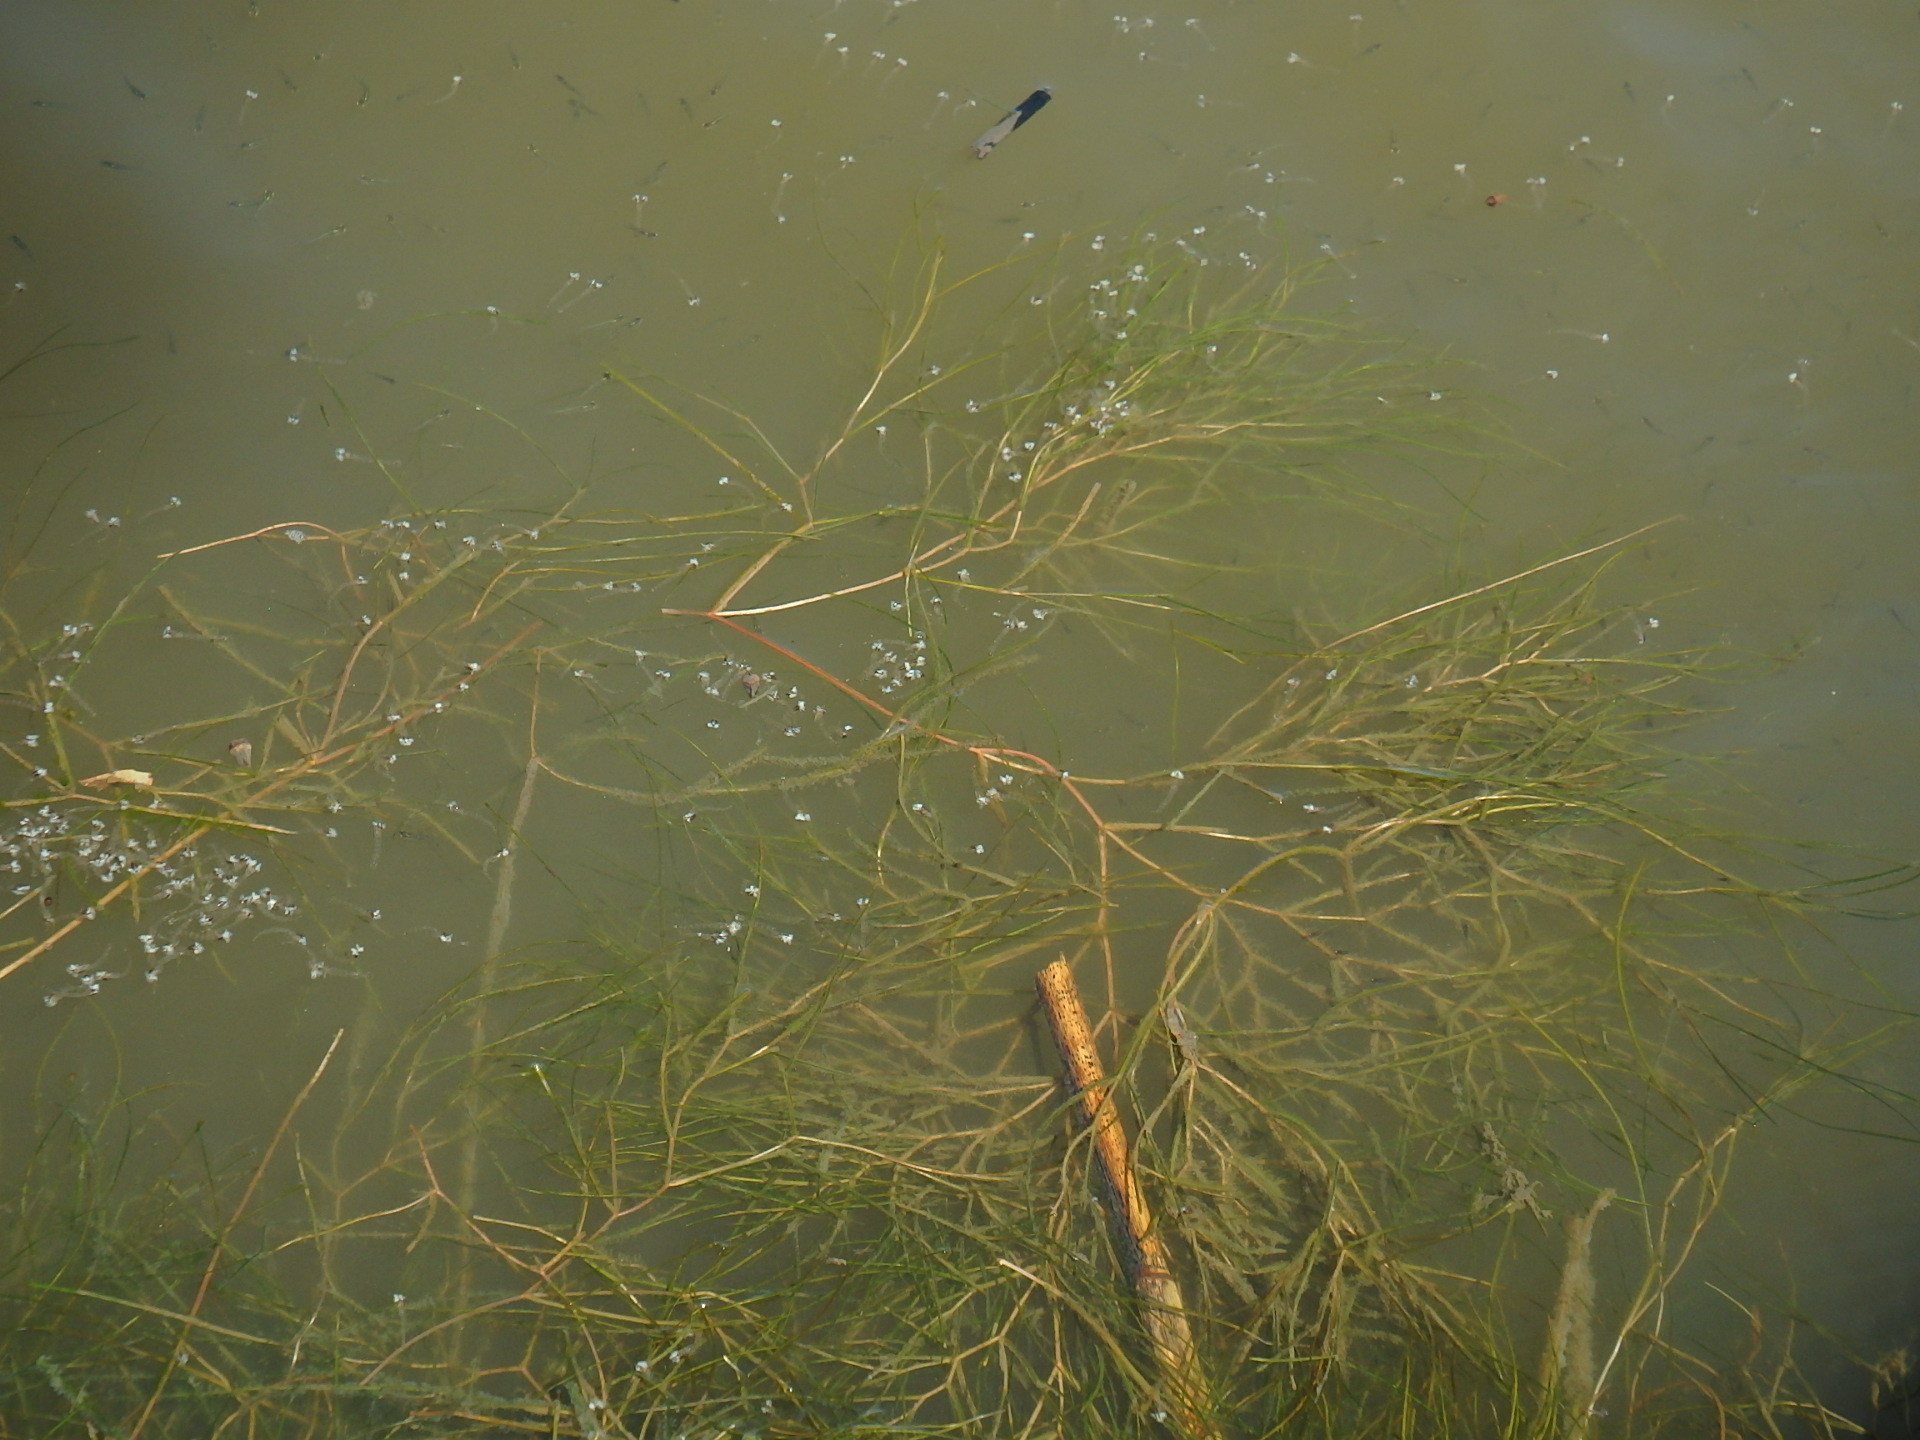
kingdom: Plantae
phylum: Tracheophyta
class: Liliopsida
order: Alismatales
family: Potamogetonaceae
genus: Stuckenia
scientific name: Stuckenia pectinata
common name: Sago pondweed
